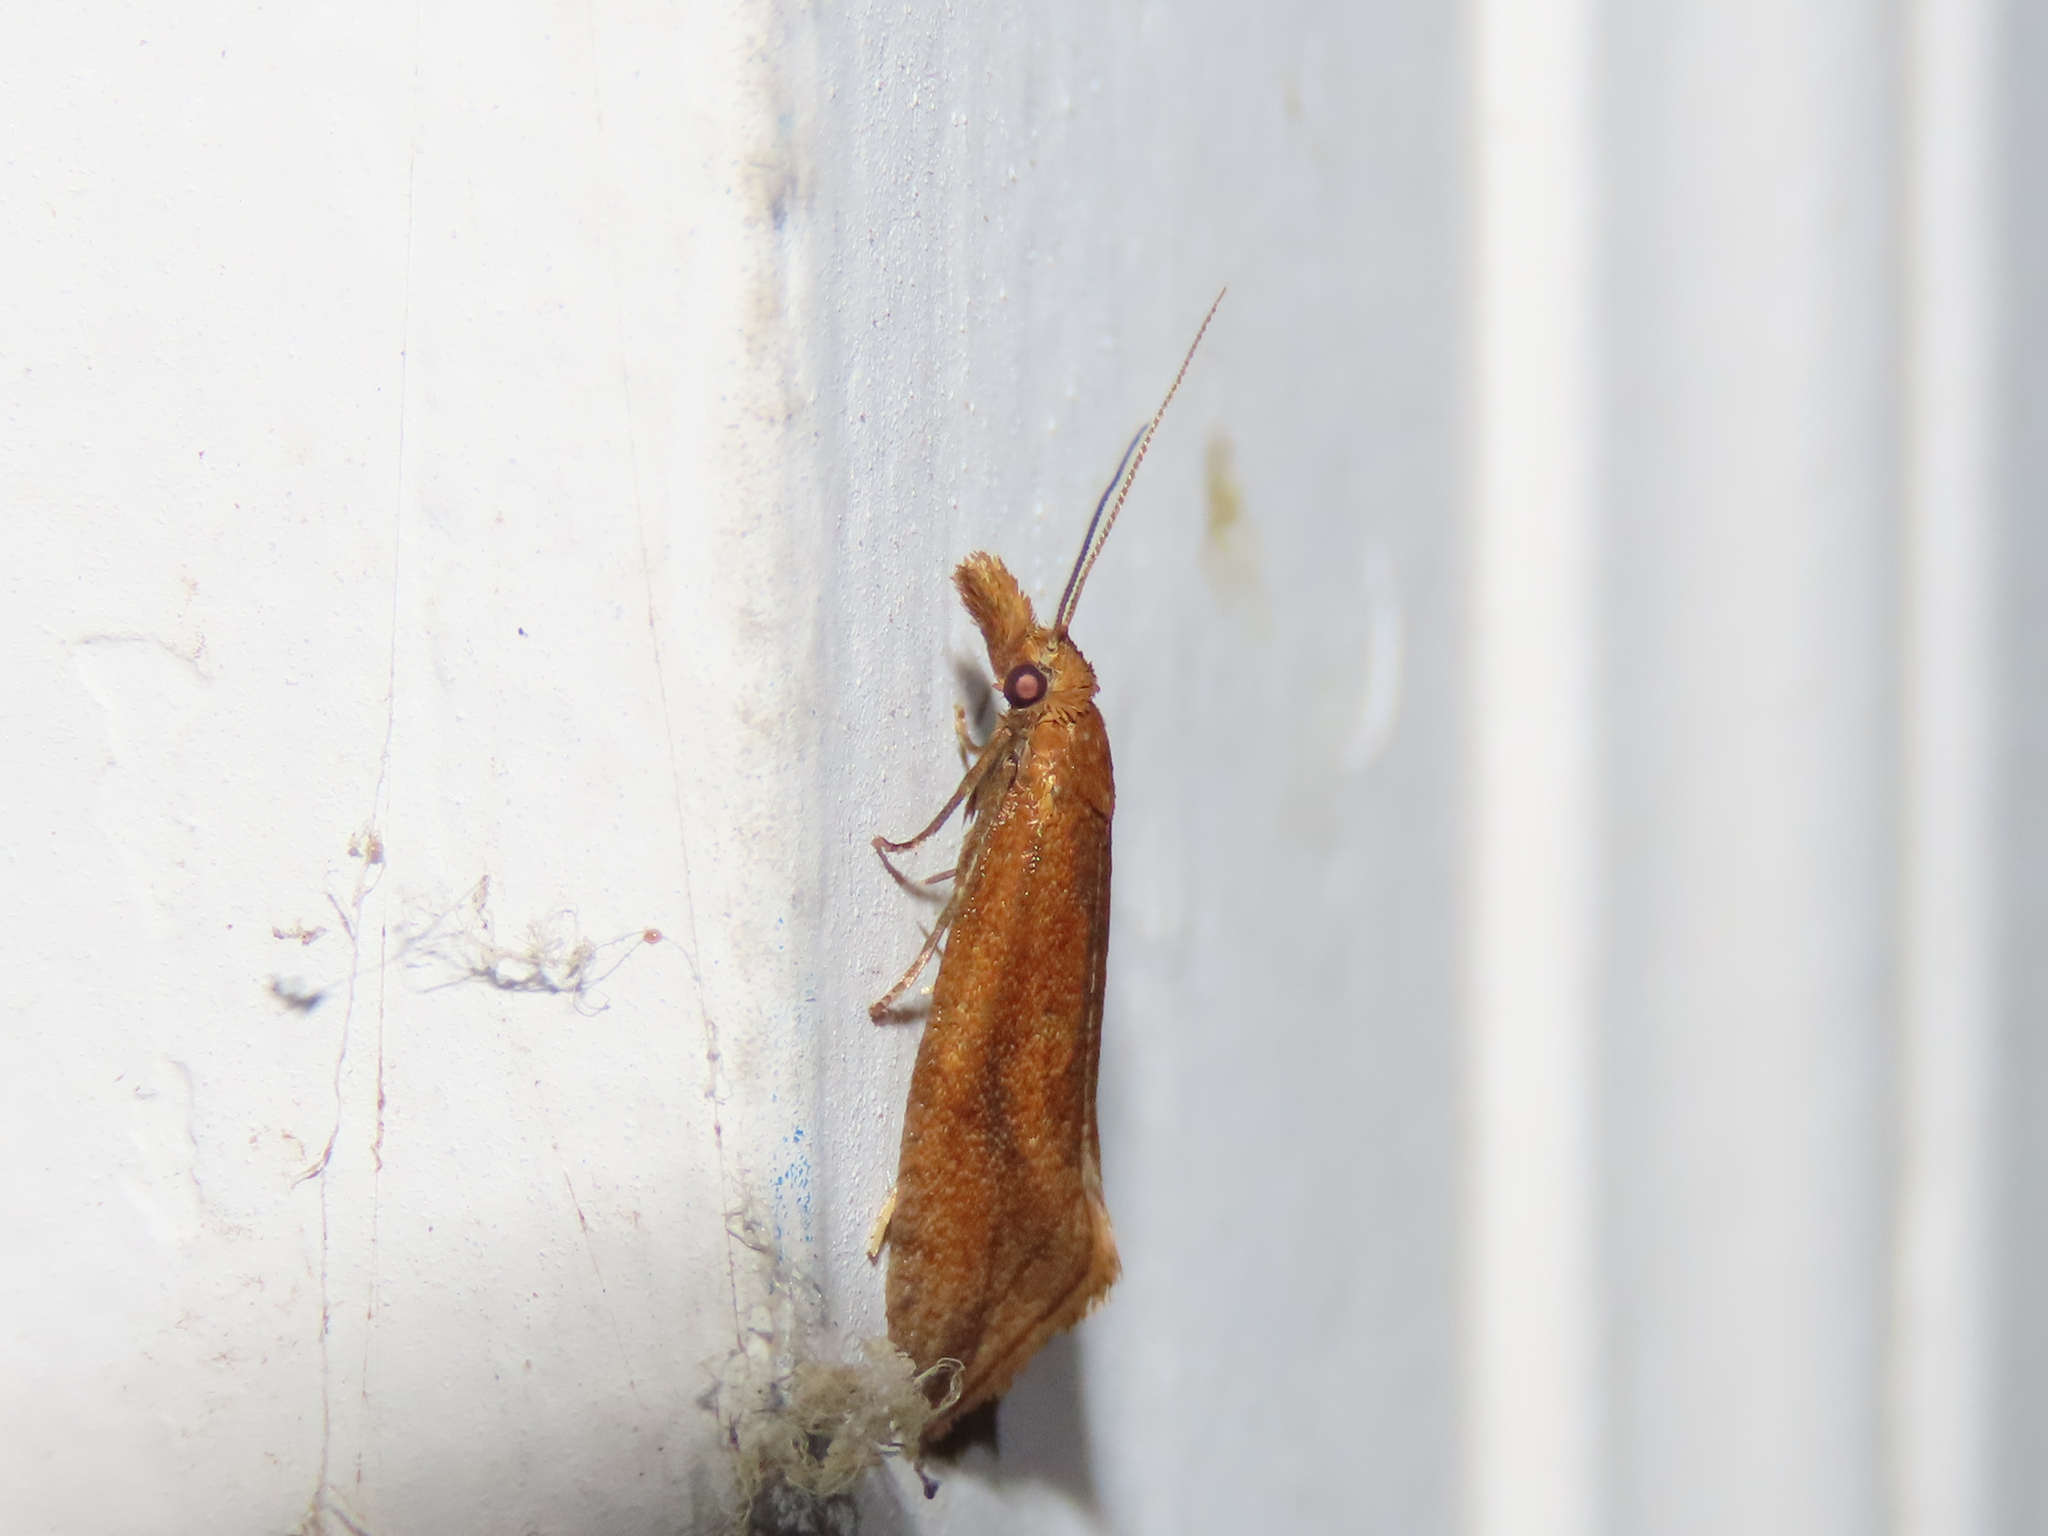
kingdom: Animalia
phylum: Arthropoda
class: Insecta
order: Lepidoptera
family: Tortricidae
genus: Aethes
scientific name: Aethes biscana
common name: Reddish aethes
